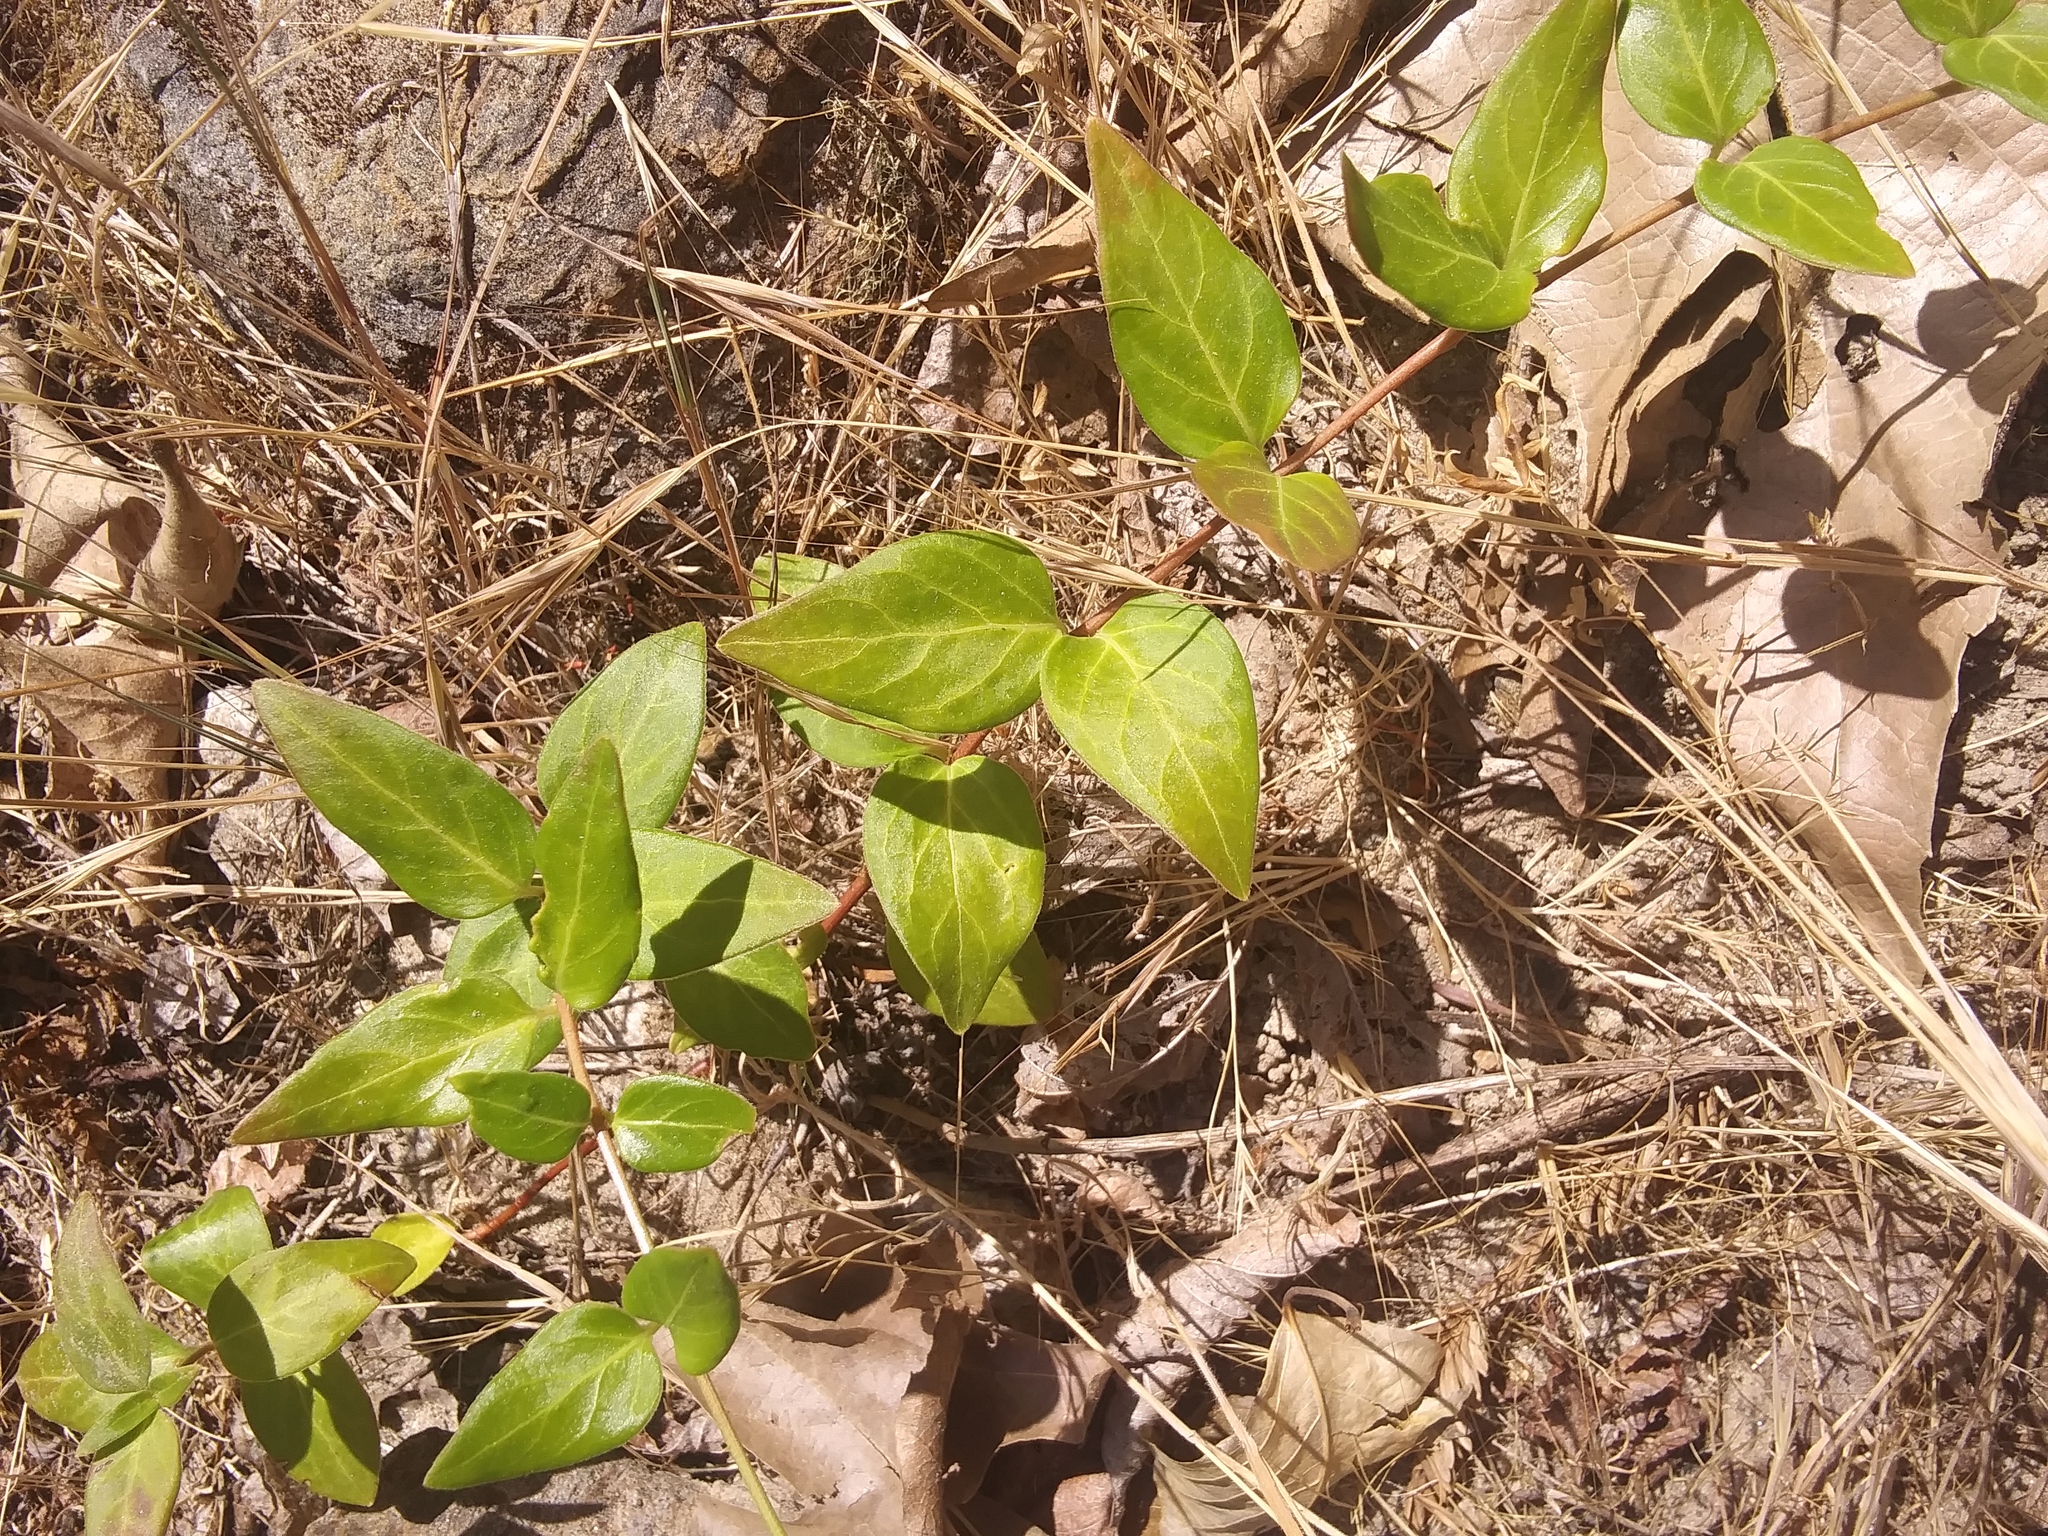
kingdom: Plantae
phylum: Tracheophyta
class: Magnoliopsida
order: Gentianales
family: Apocynaceae
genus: Vinca
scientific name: Vinca major
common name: Greater periwinkle
